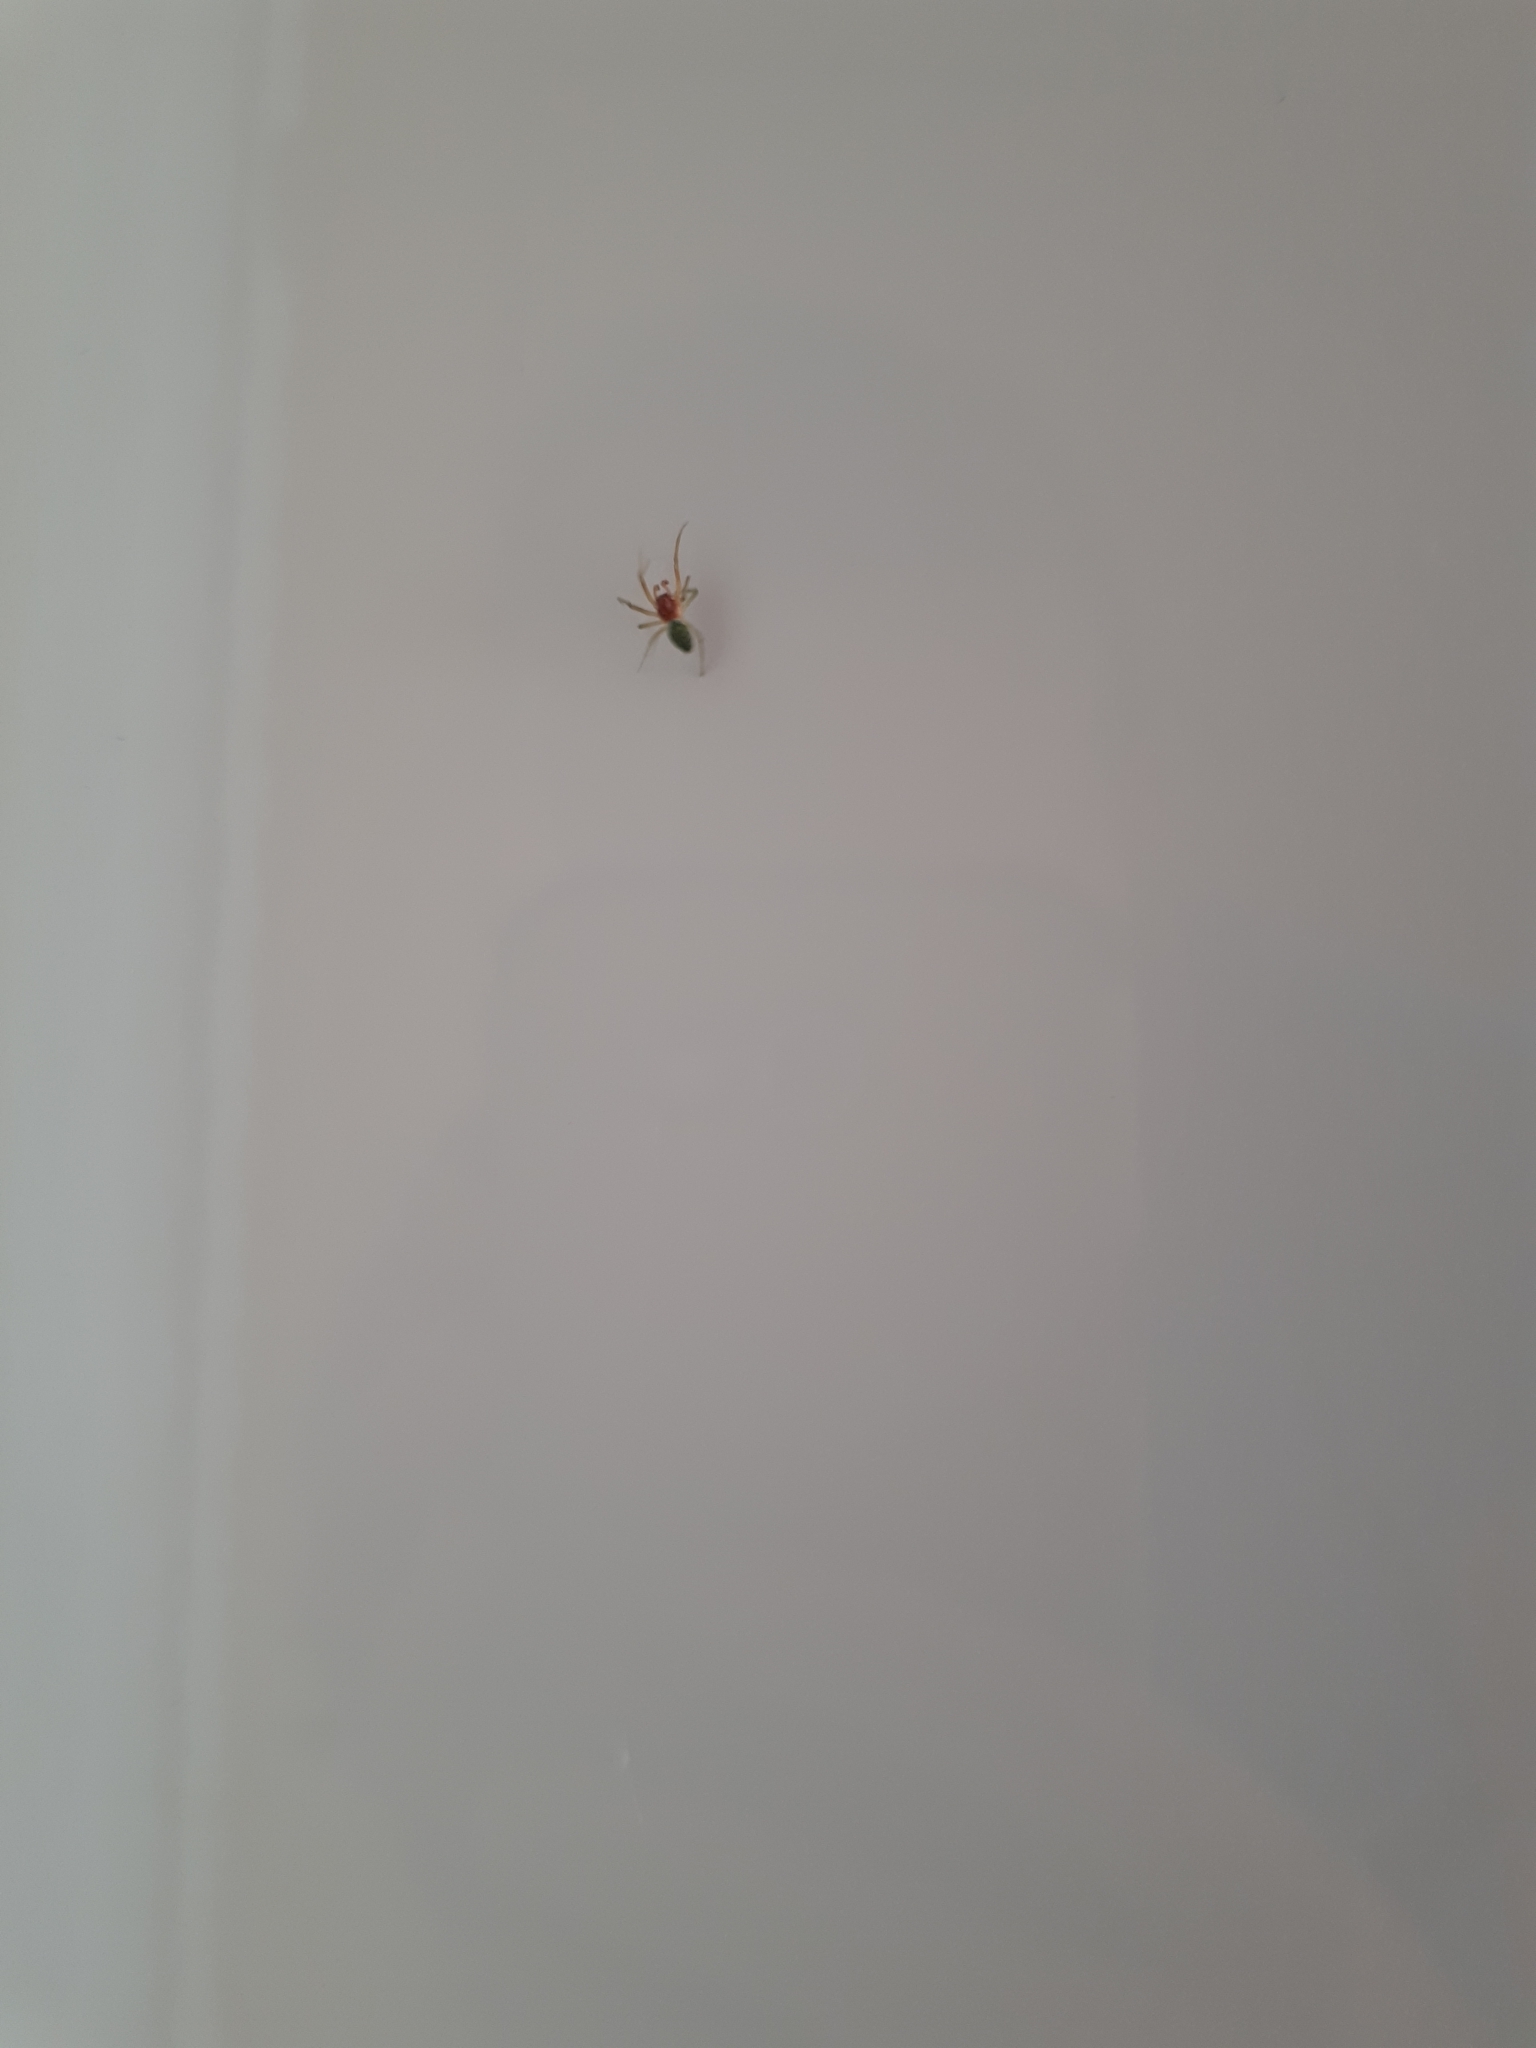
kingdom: Animalia
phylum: Arthropoda
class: Arachnida
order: Araneae
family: Dictynidae
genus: Nigma
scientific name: Nigma walckenaeri
